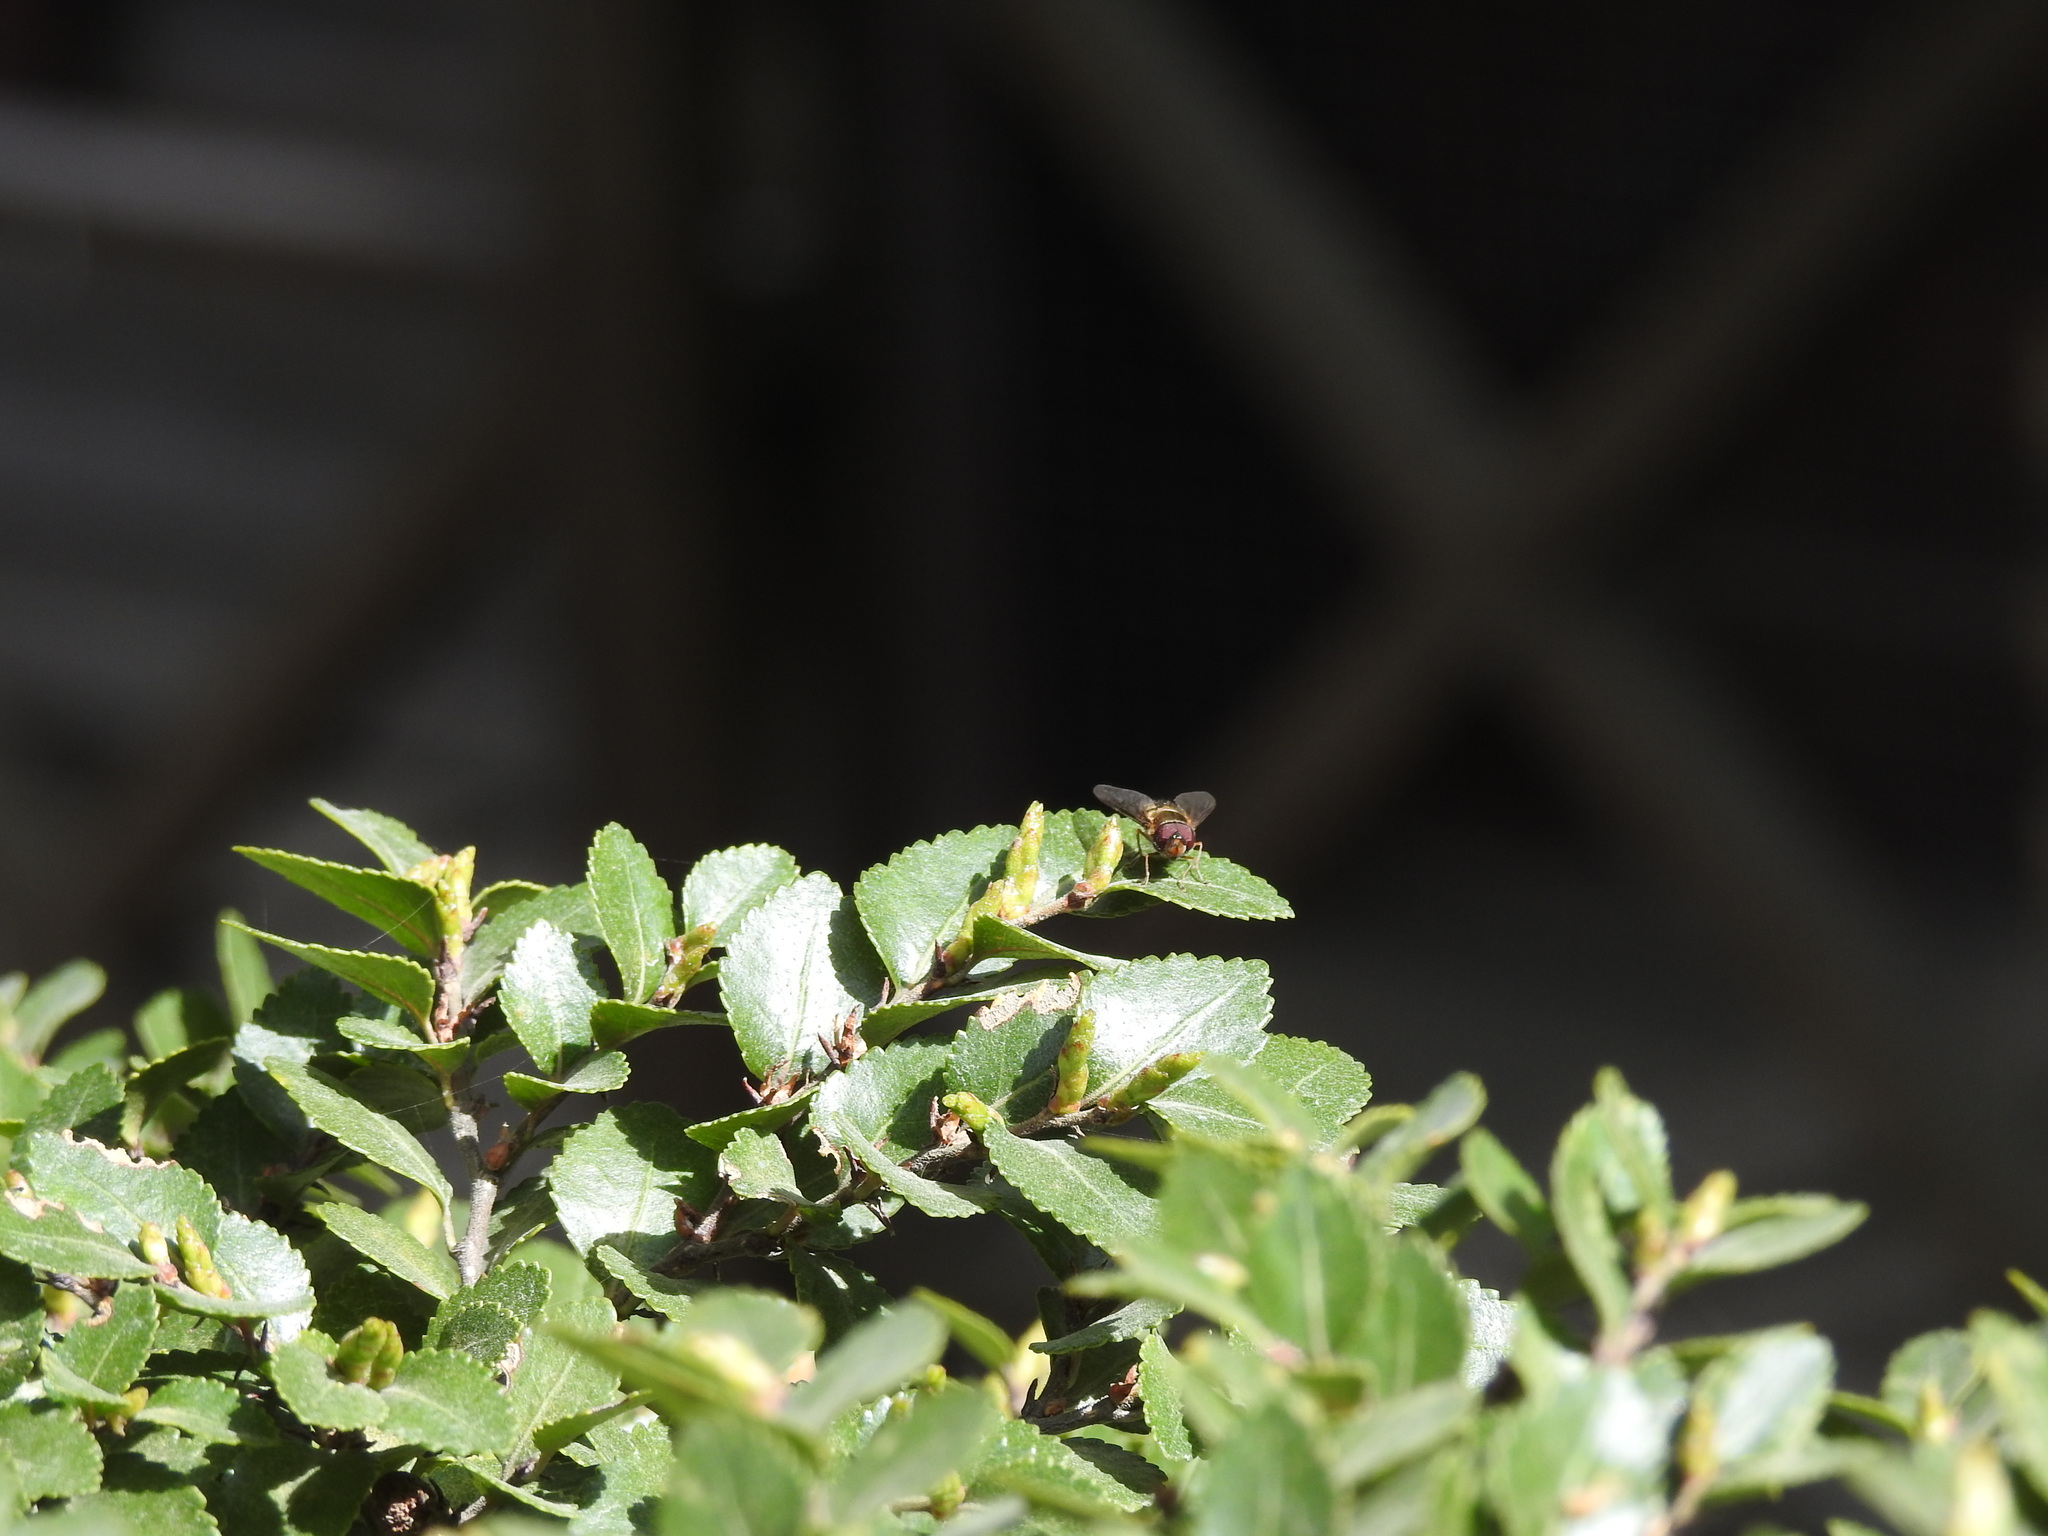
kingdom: Animalia
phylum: Arthropoda
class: Insecta
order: Diptera
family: Syrphidae
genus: Syrphus
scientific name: Syrphus octomaculatus
